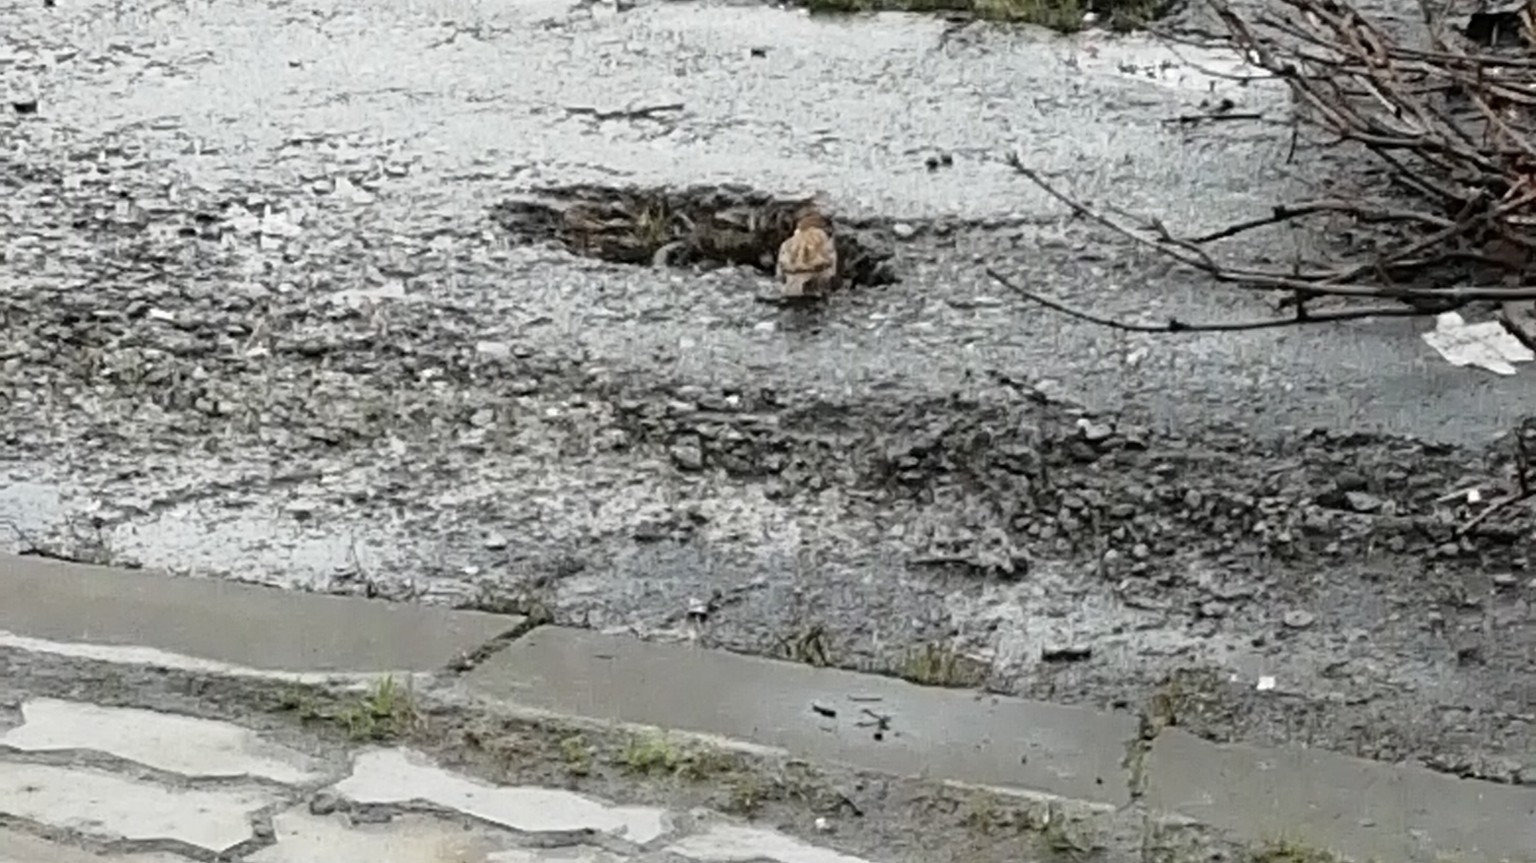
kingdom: Animalia
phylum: Chordata
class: Aves
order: Passeriformes
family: Passeridae
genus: Passer
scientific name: Passer montanus
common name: Eurasian tree sparrow
